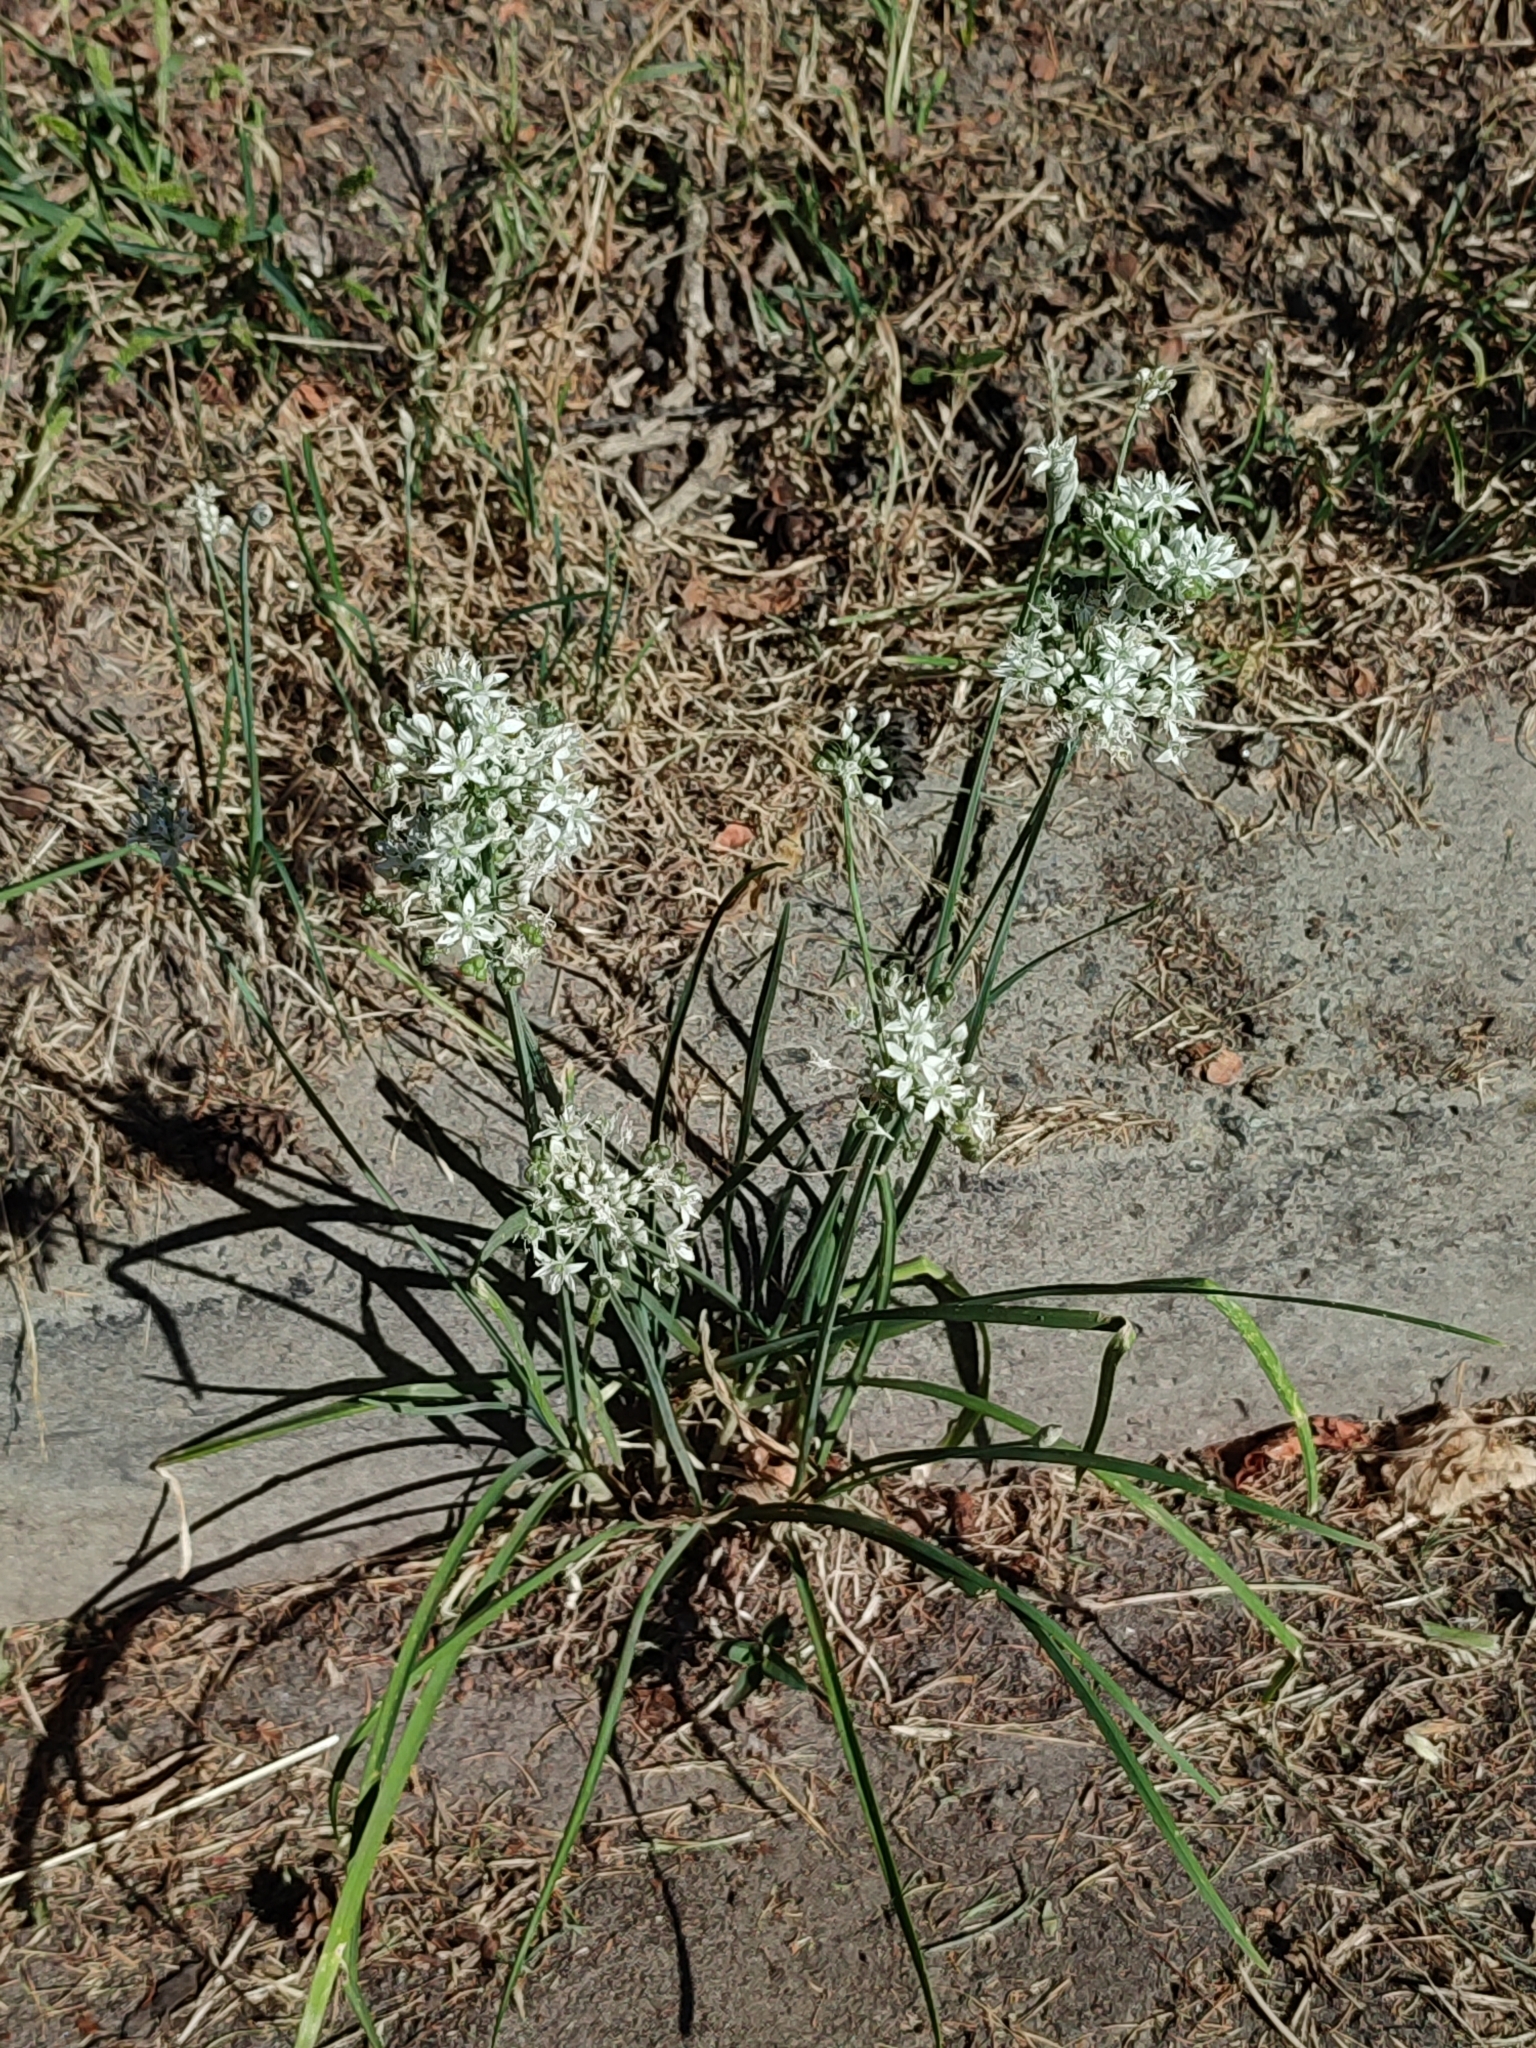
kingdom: Plantae
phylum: Tracheophyta
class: Liliopsida
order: Asparagales
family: Amaryllidaceae
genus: Allium
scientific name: Allium tuberosum
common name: Chinese chives
